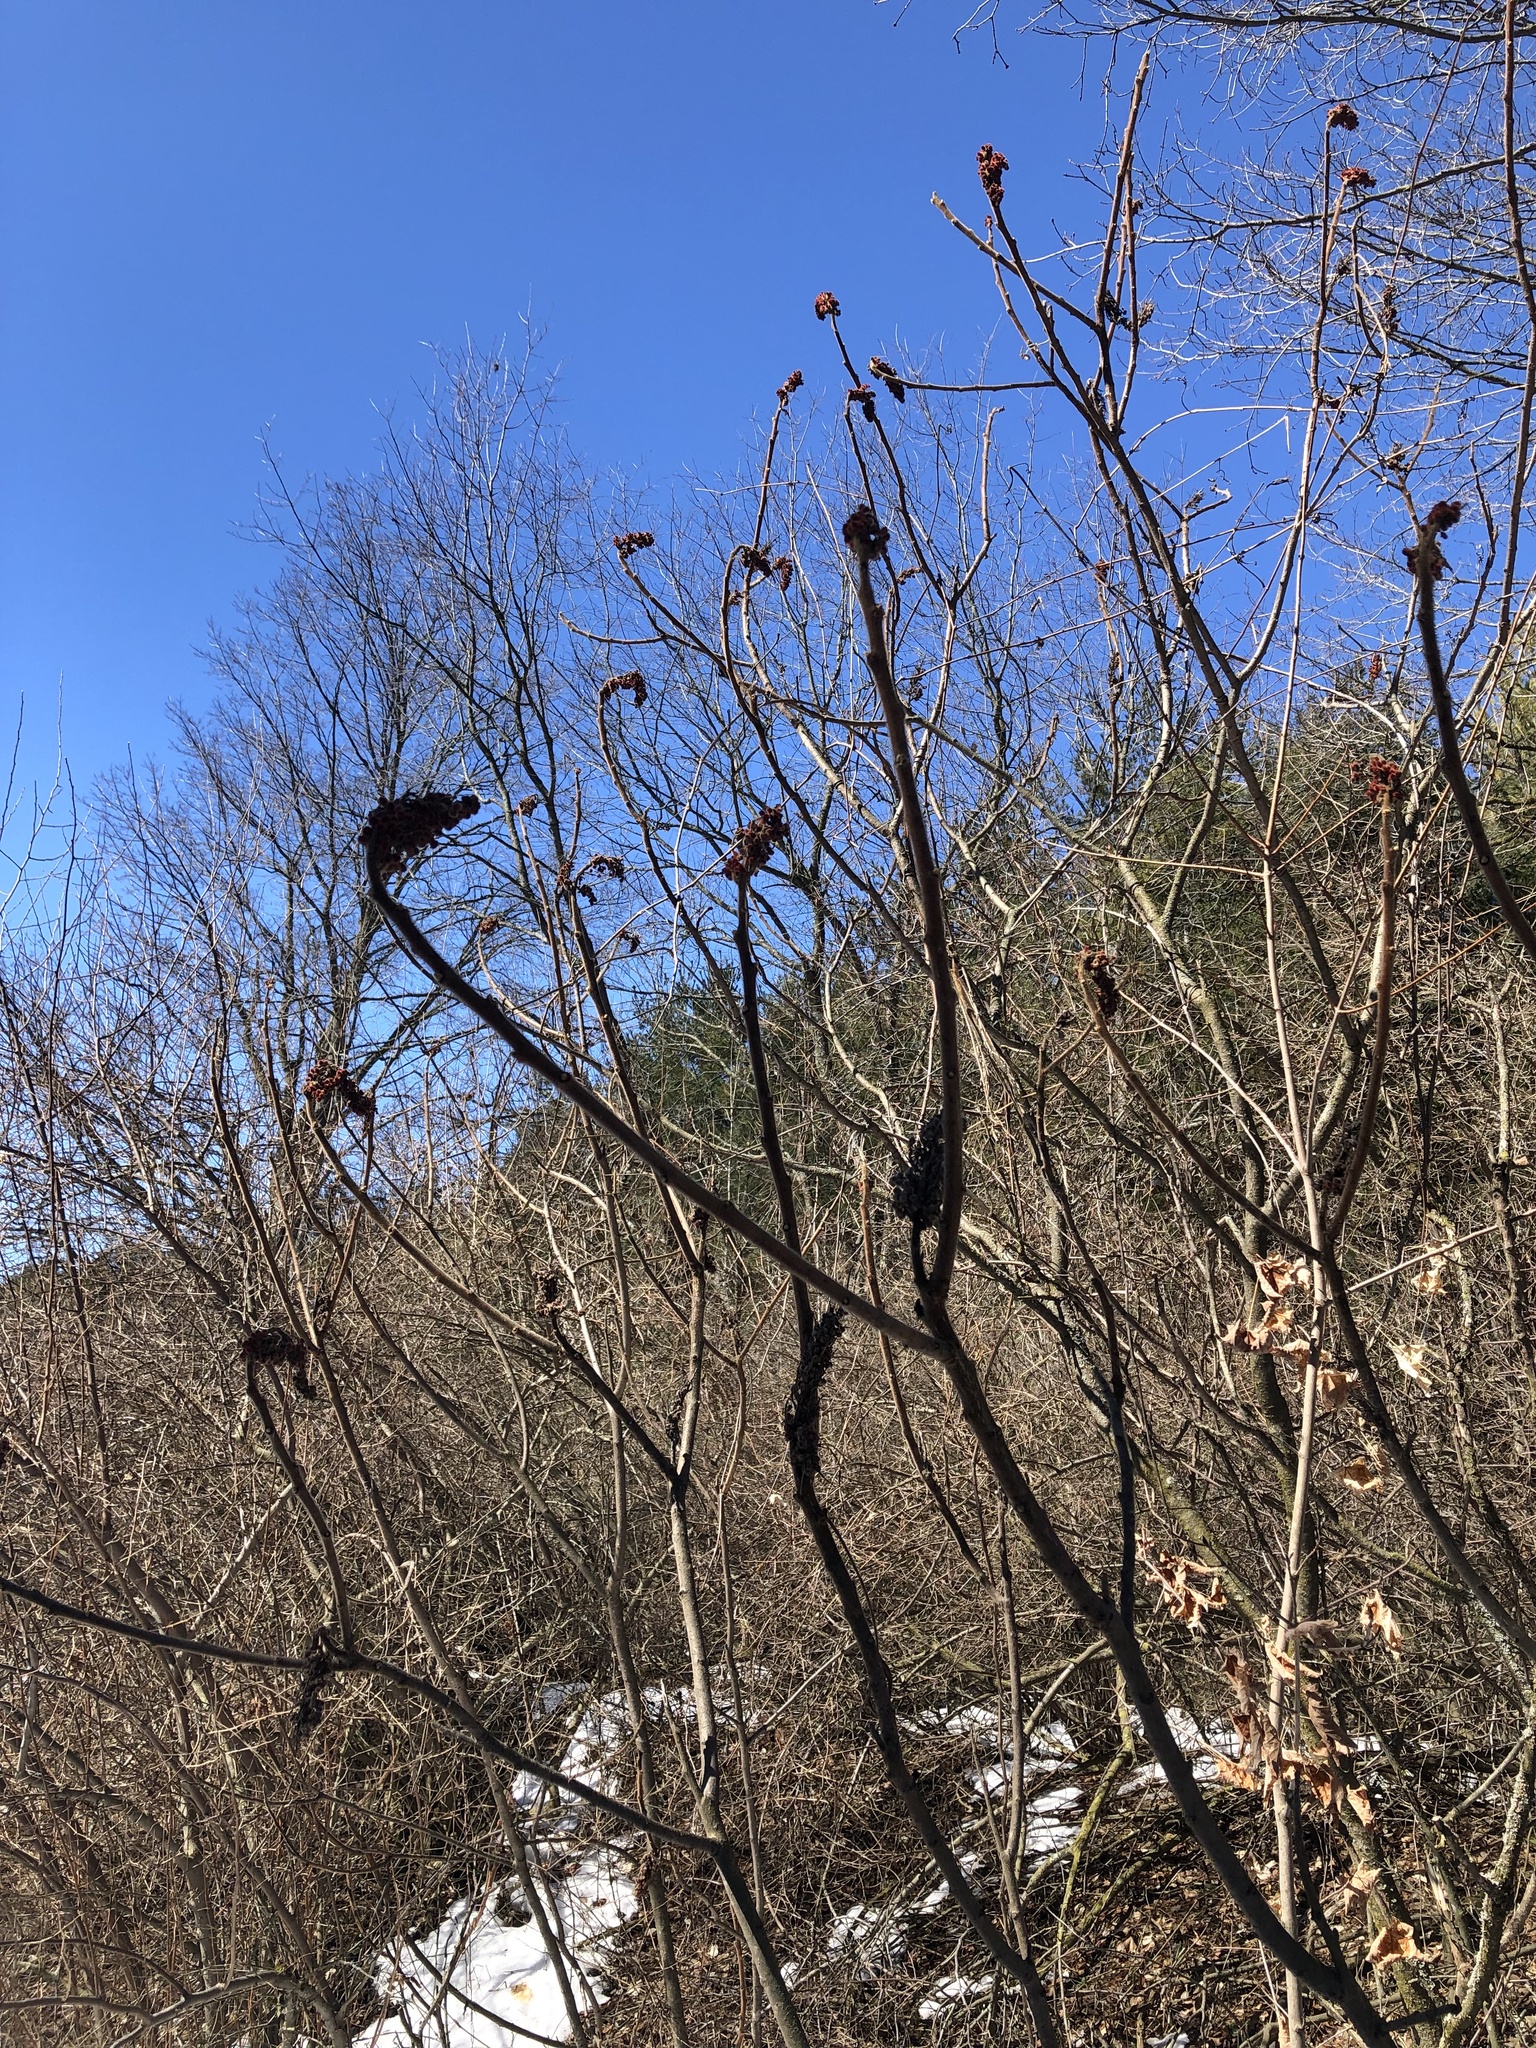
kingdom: Plantae
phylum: Tracheophyta
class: Magnoliopsida
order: Sapindales
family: Anacardiaceae
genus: Rhus
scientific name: Rhus typhina
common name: Staghorn sumac
